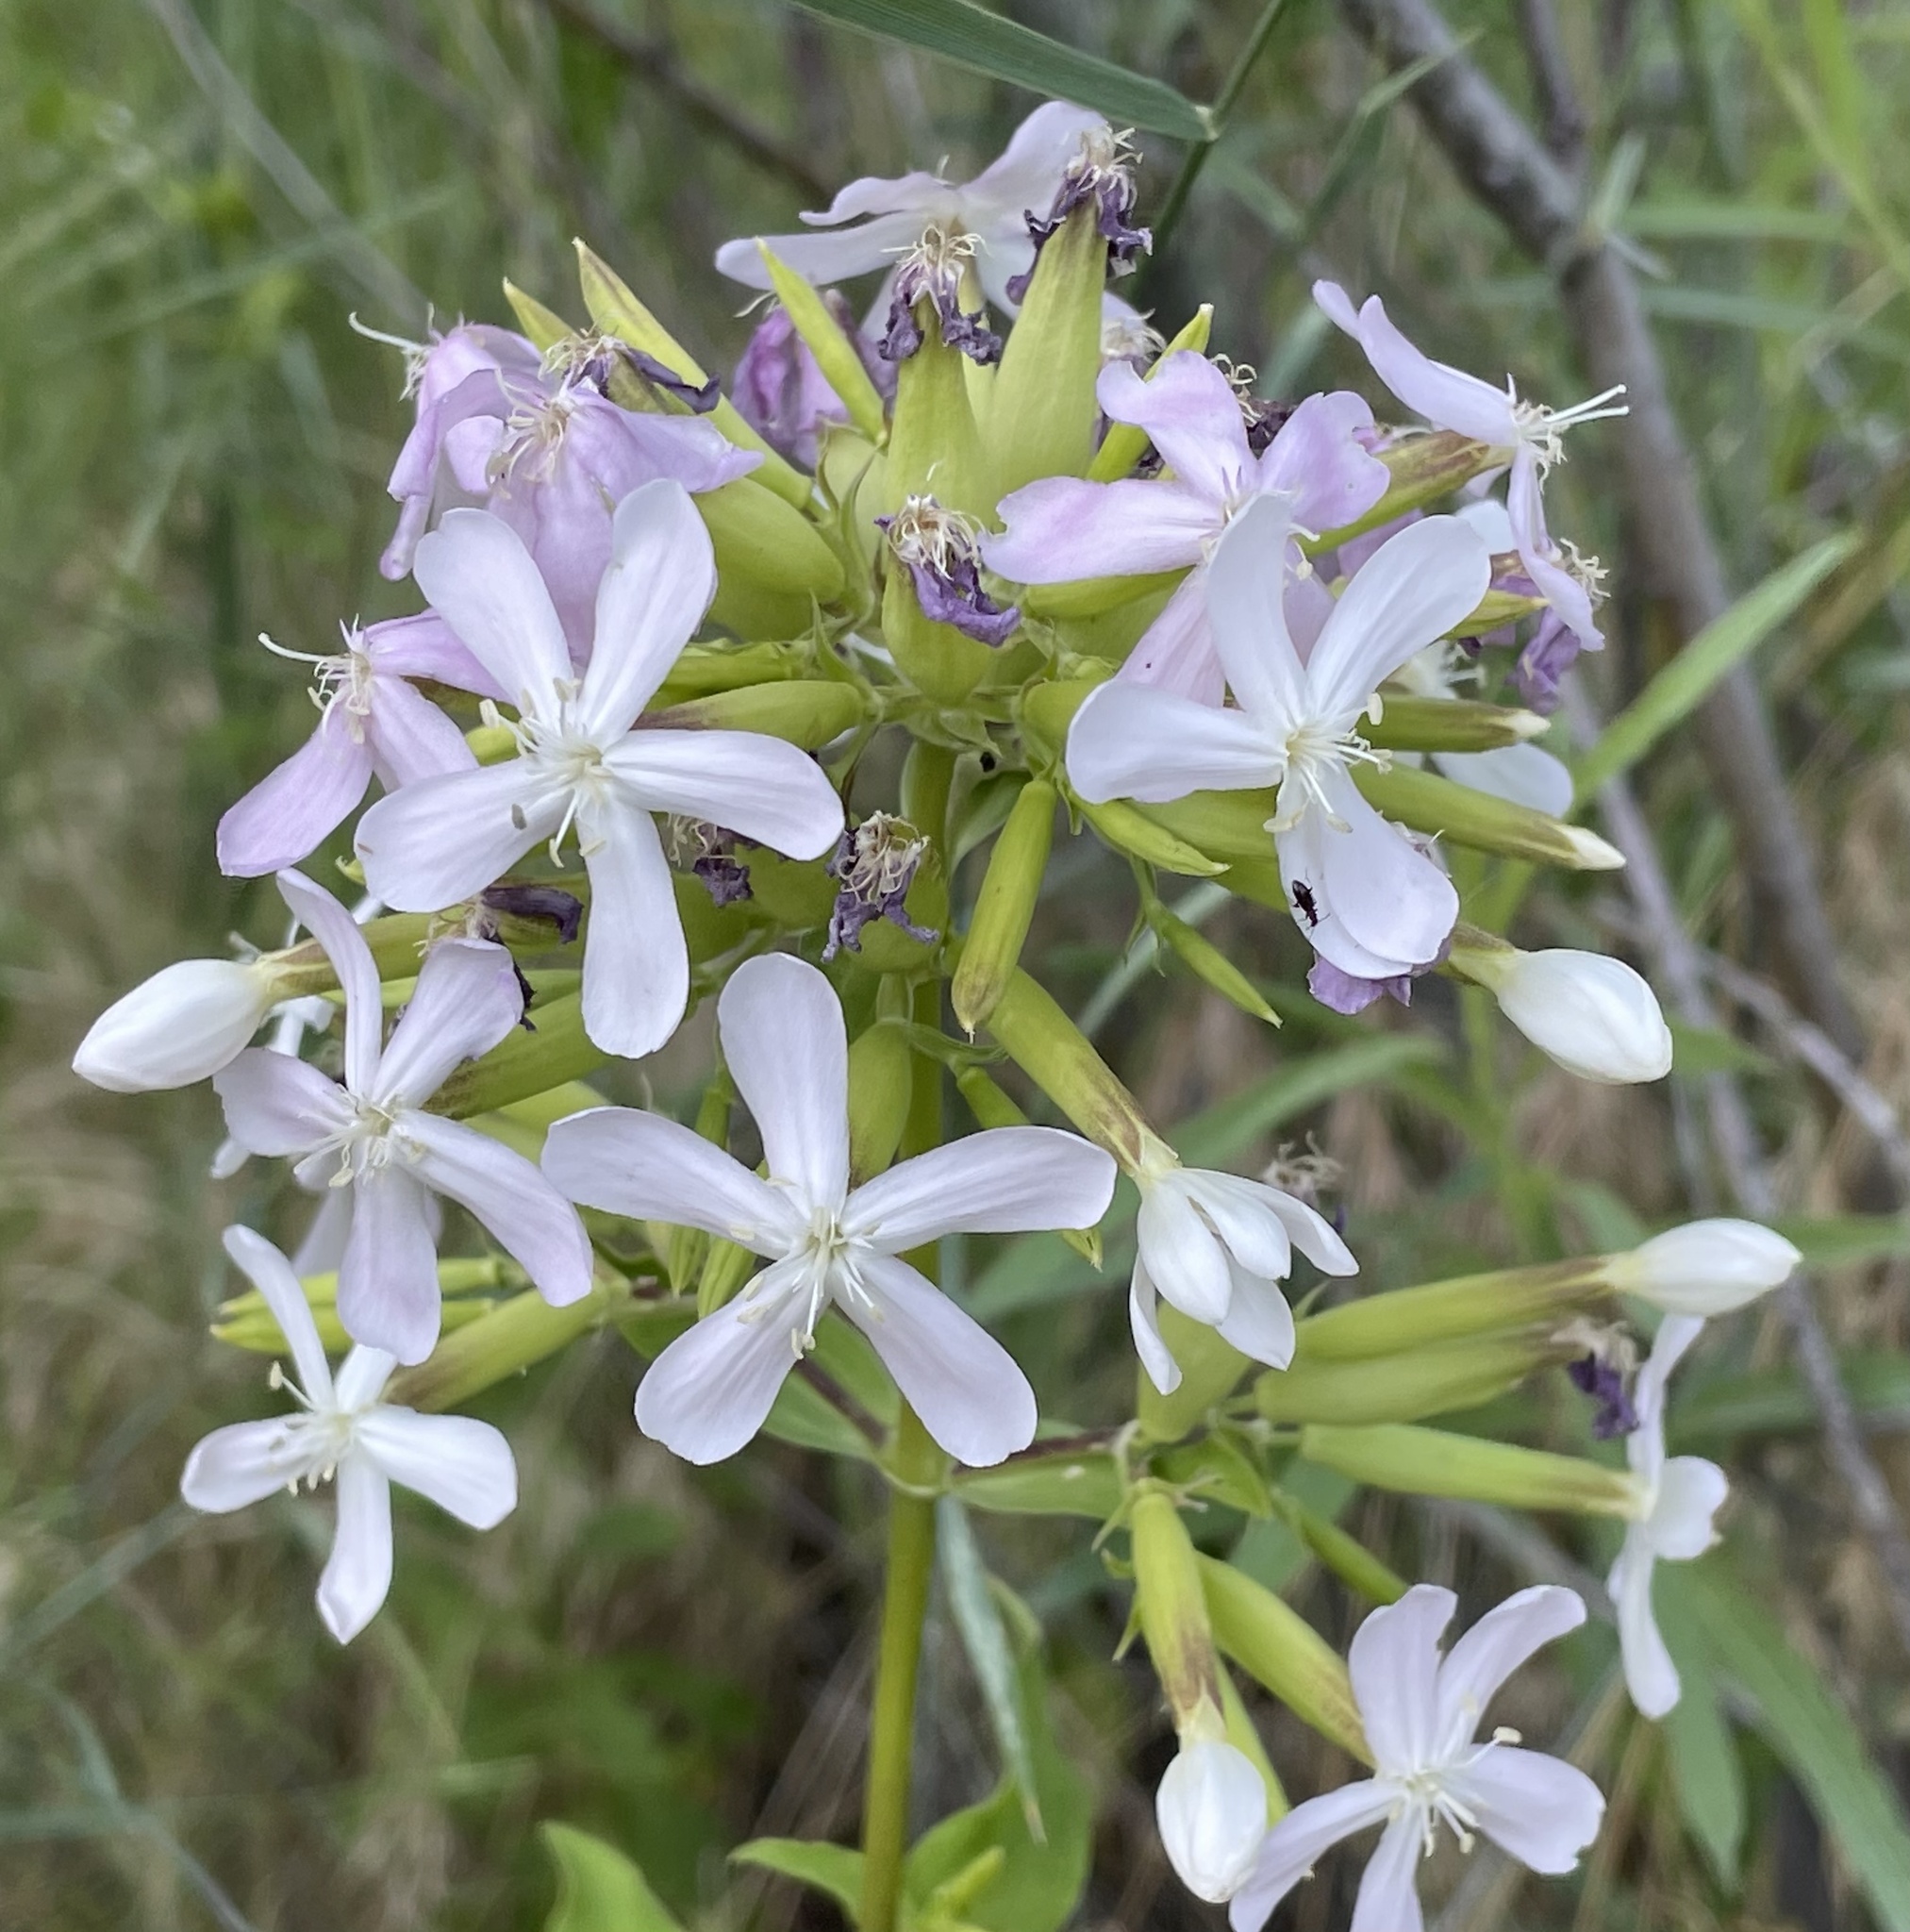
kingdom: Plantae
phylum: Tracheophyta
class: Magnoliopsida
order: Caryophyllales
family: Caryophyllaceae
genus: Saponaria
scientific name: Saponaria officinalis
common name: Soapwort
